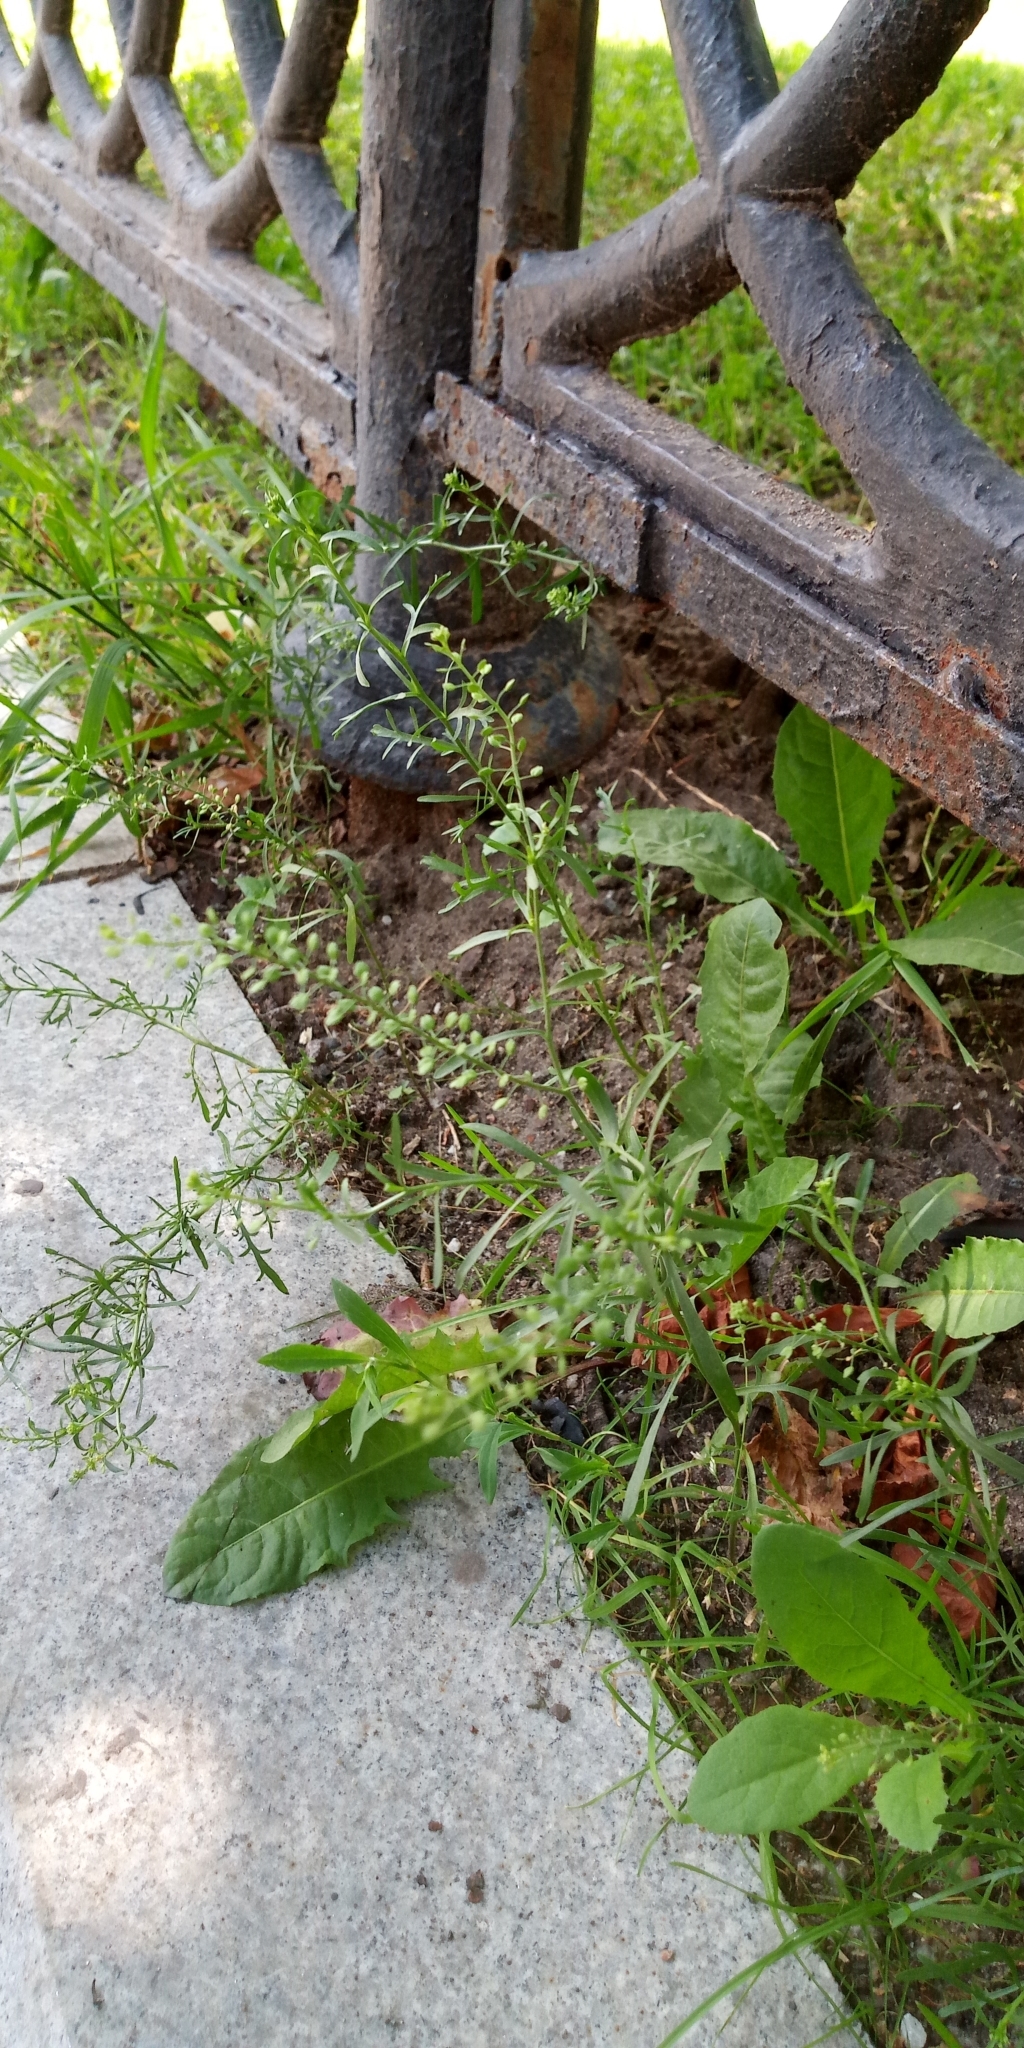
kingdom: Plantae
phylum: Tracheophyta
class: Magnoliopsida
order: Brassicales
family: Brassicaceae
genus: Lepidium
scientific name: Lepidium ruderale
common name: Narrow-leaved pepperwort
